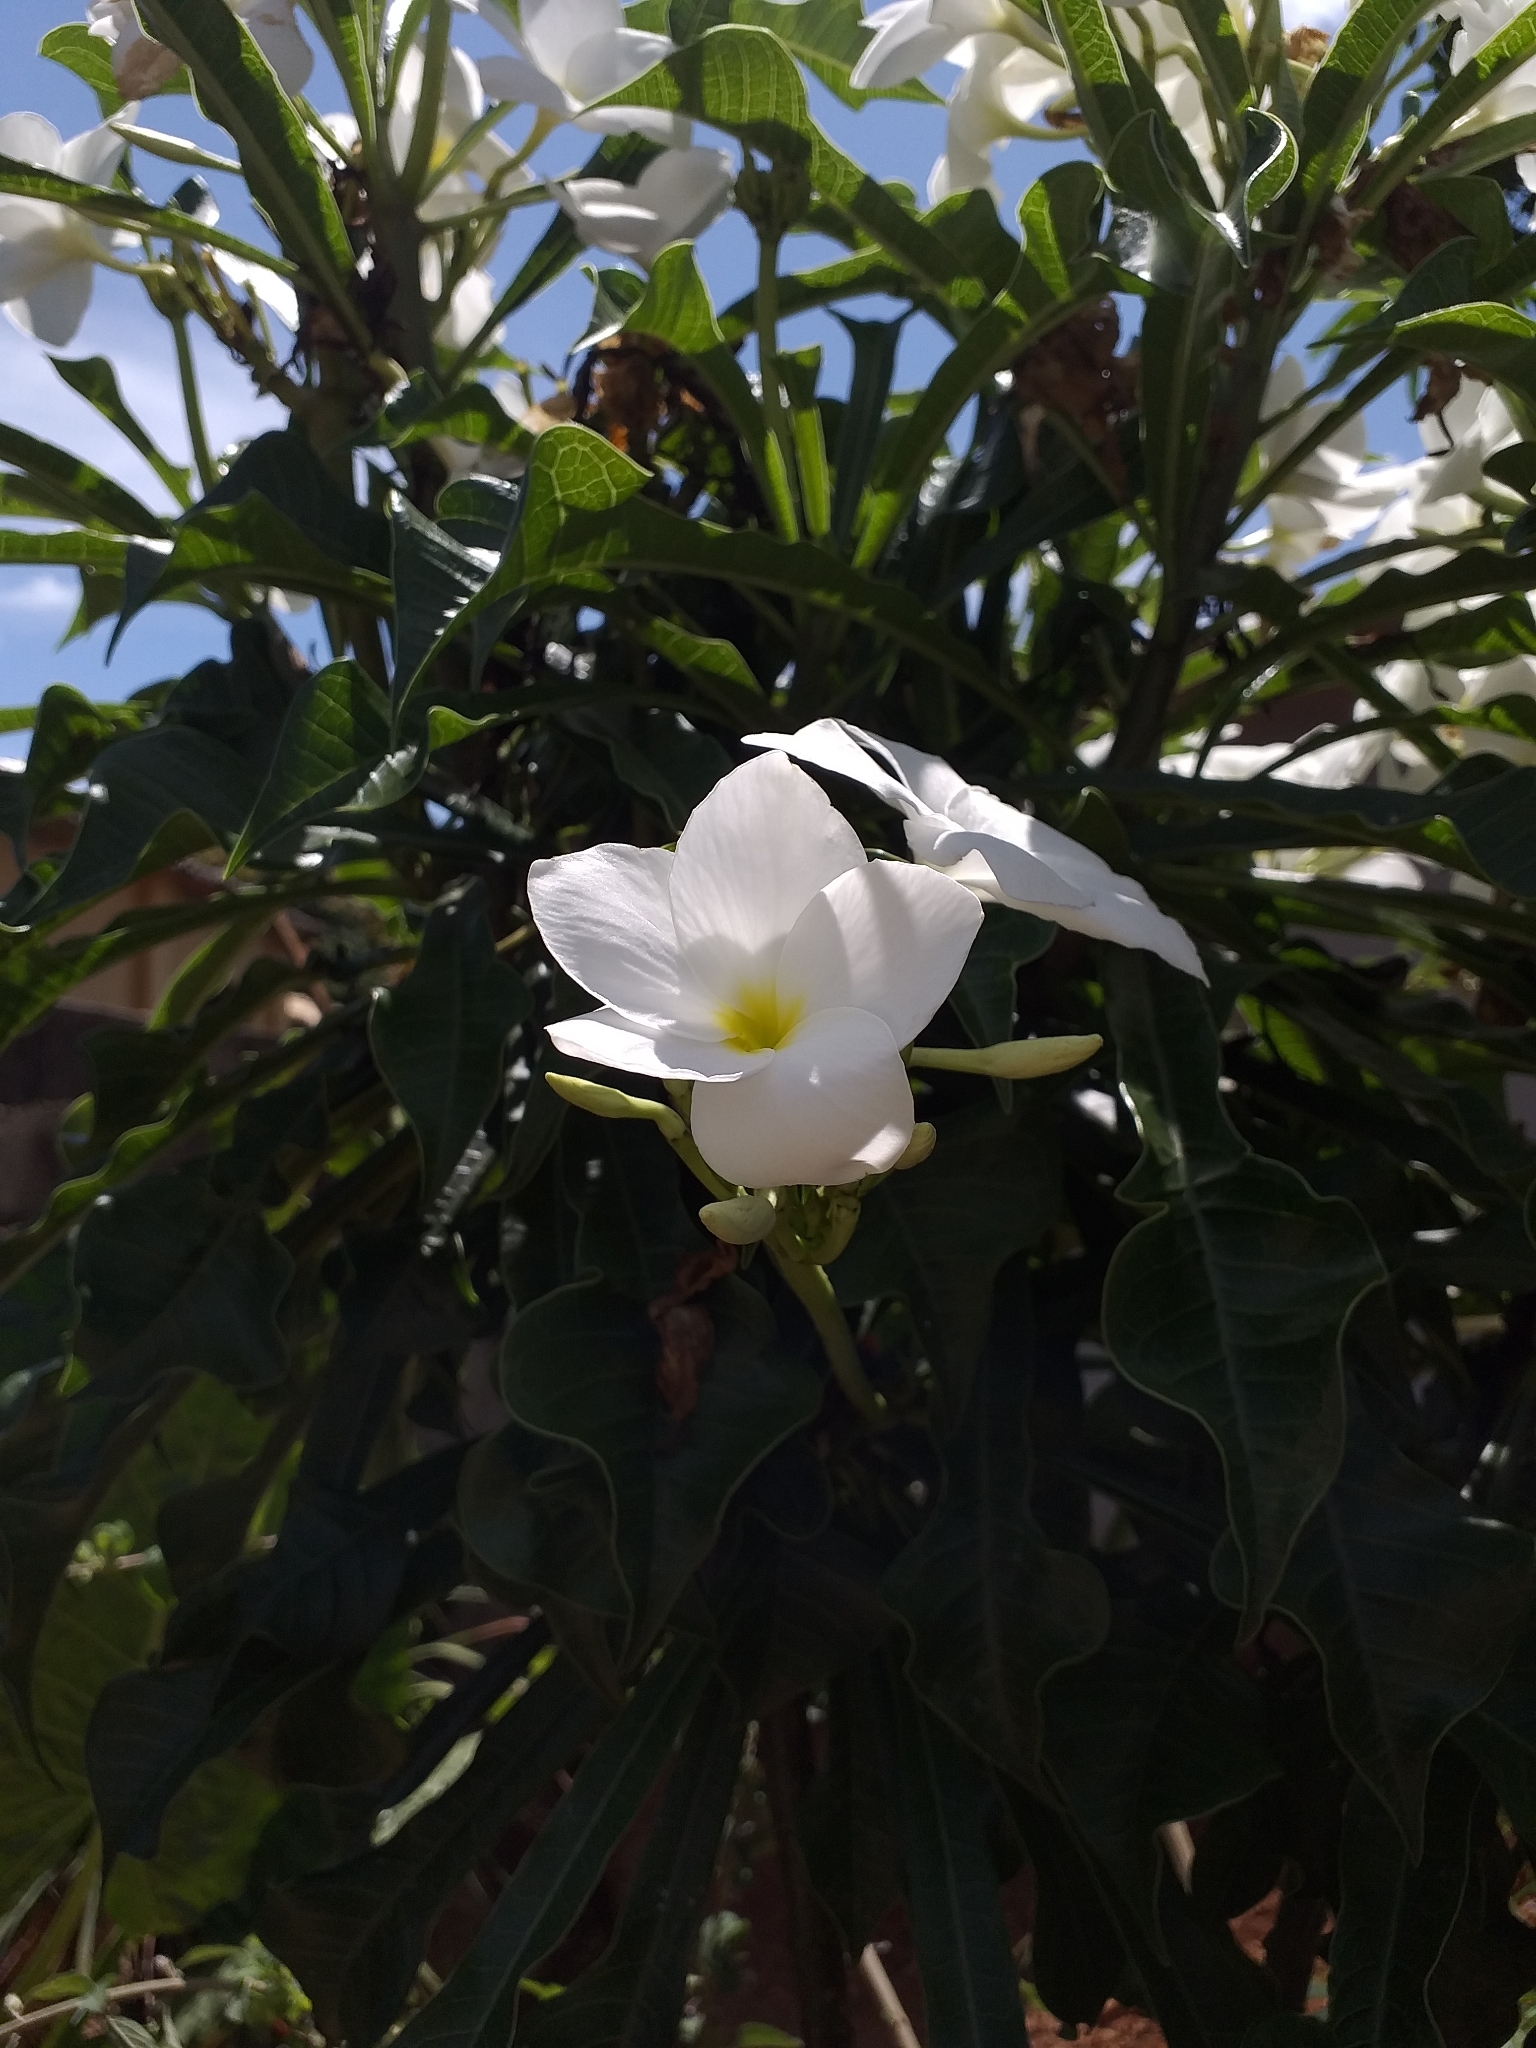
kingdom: Plantae
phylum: Tracheophyta
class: Magnoliopsida
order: Gentianales
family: Apocynaceae
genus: Plumeria
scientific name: Plumeria pudica
